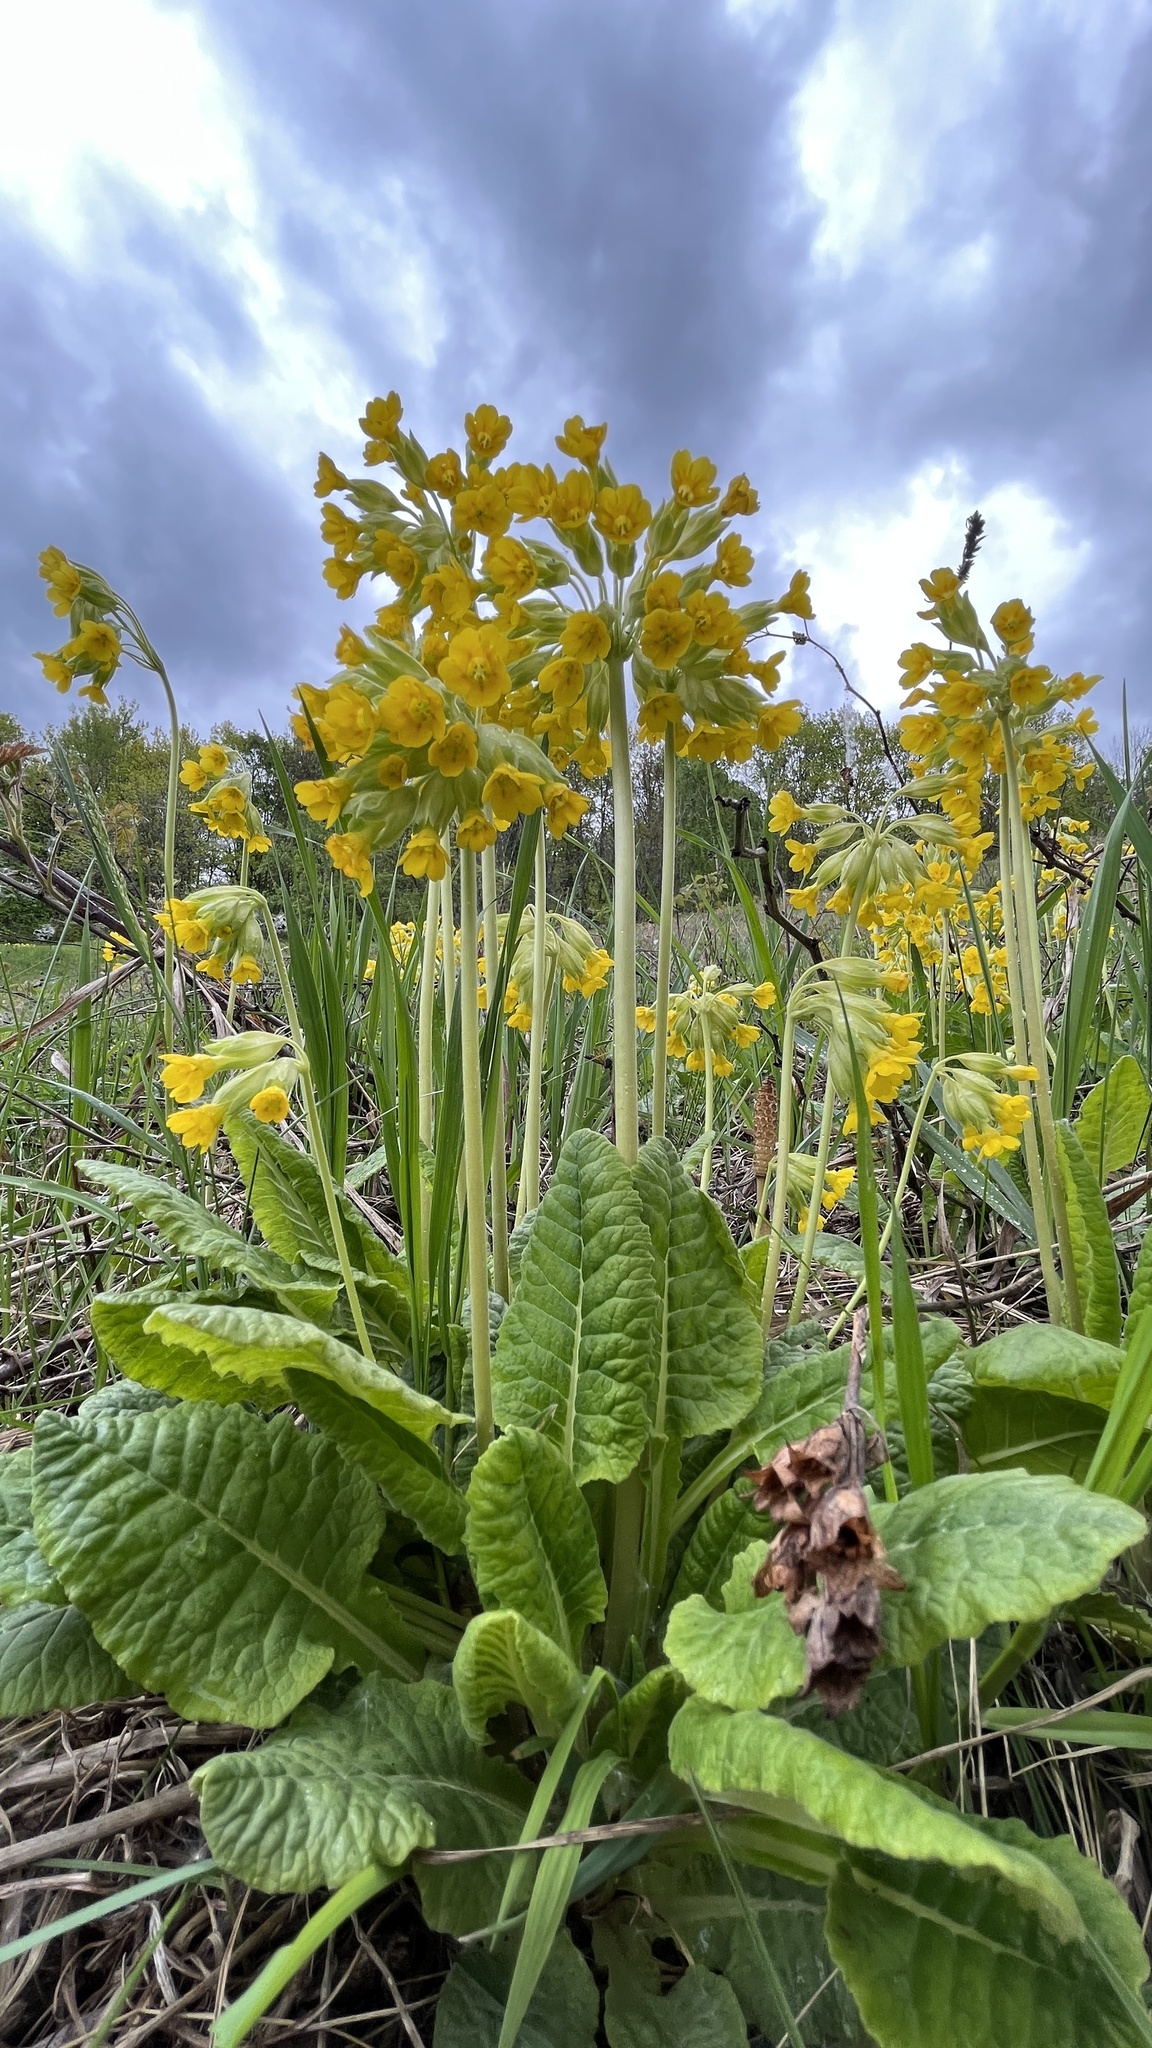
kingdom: Plantae
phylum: Tracheophyta
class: Magnoliopsida
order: Ericales
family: Primulaceae
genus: Primula
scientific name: Primula veris
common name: Cowslip
